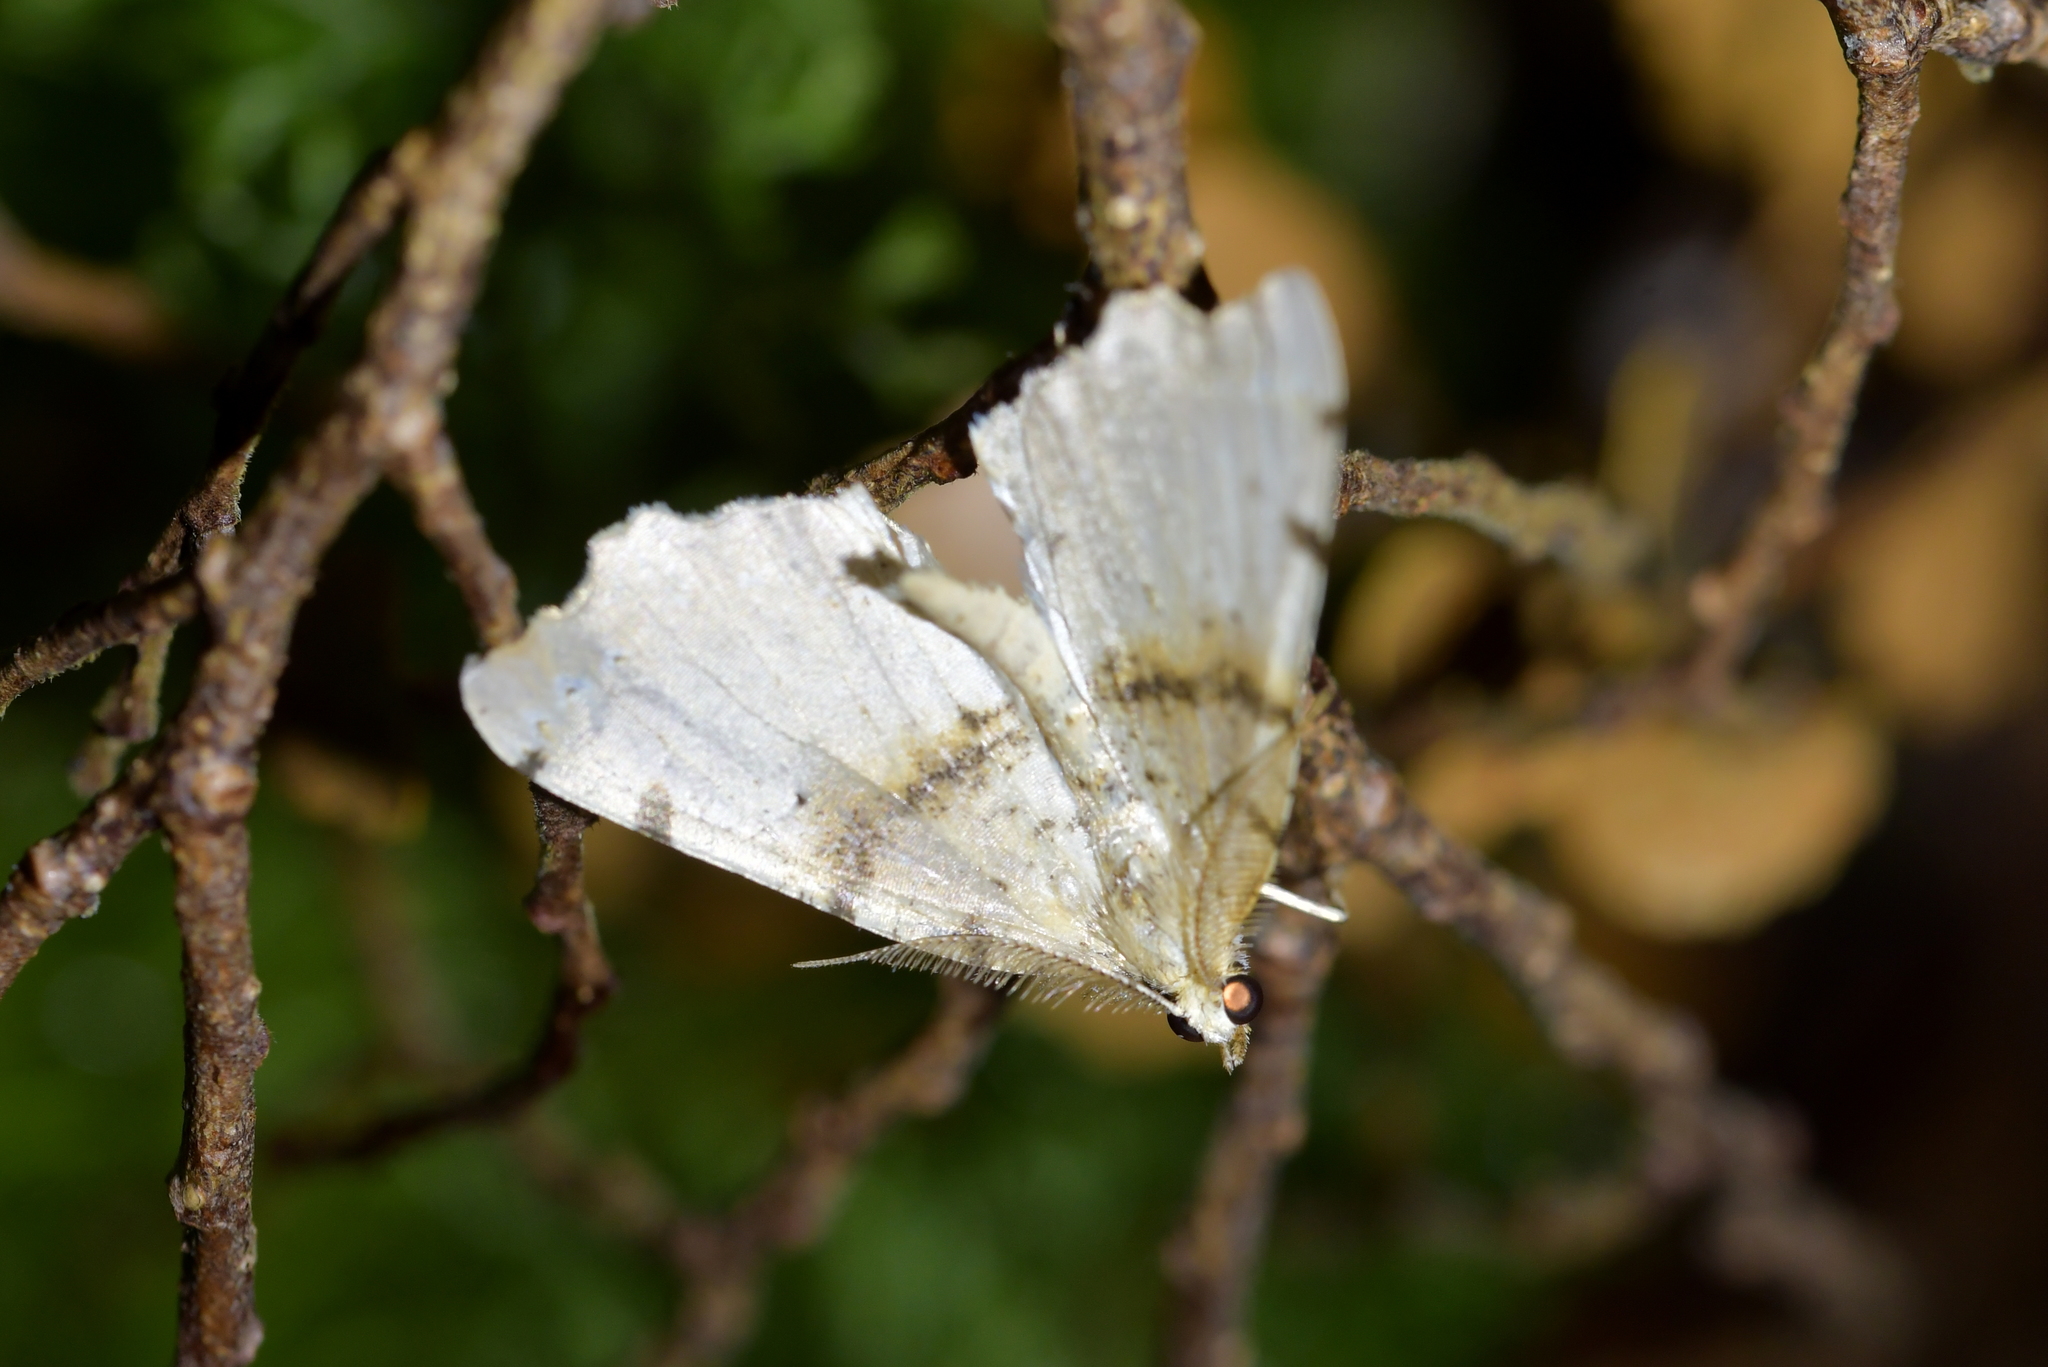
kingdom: Animalia
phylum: Arthropoda
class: Insecta
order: Lepidoptera
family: Geometridae
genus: Chalastra
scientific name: Chalastra pellurgata
